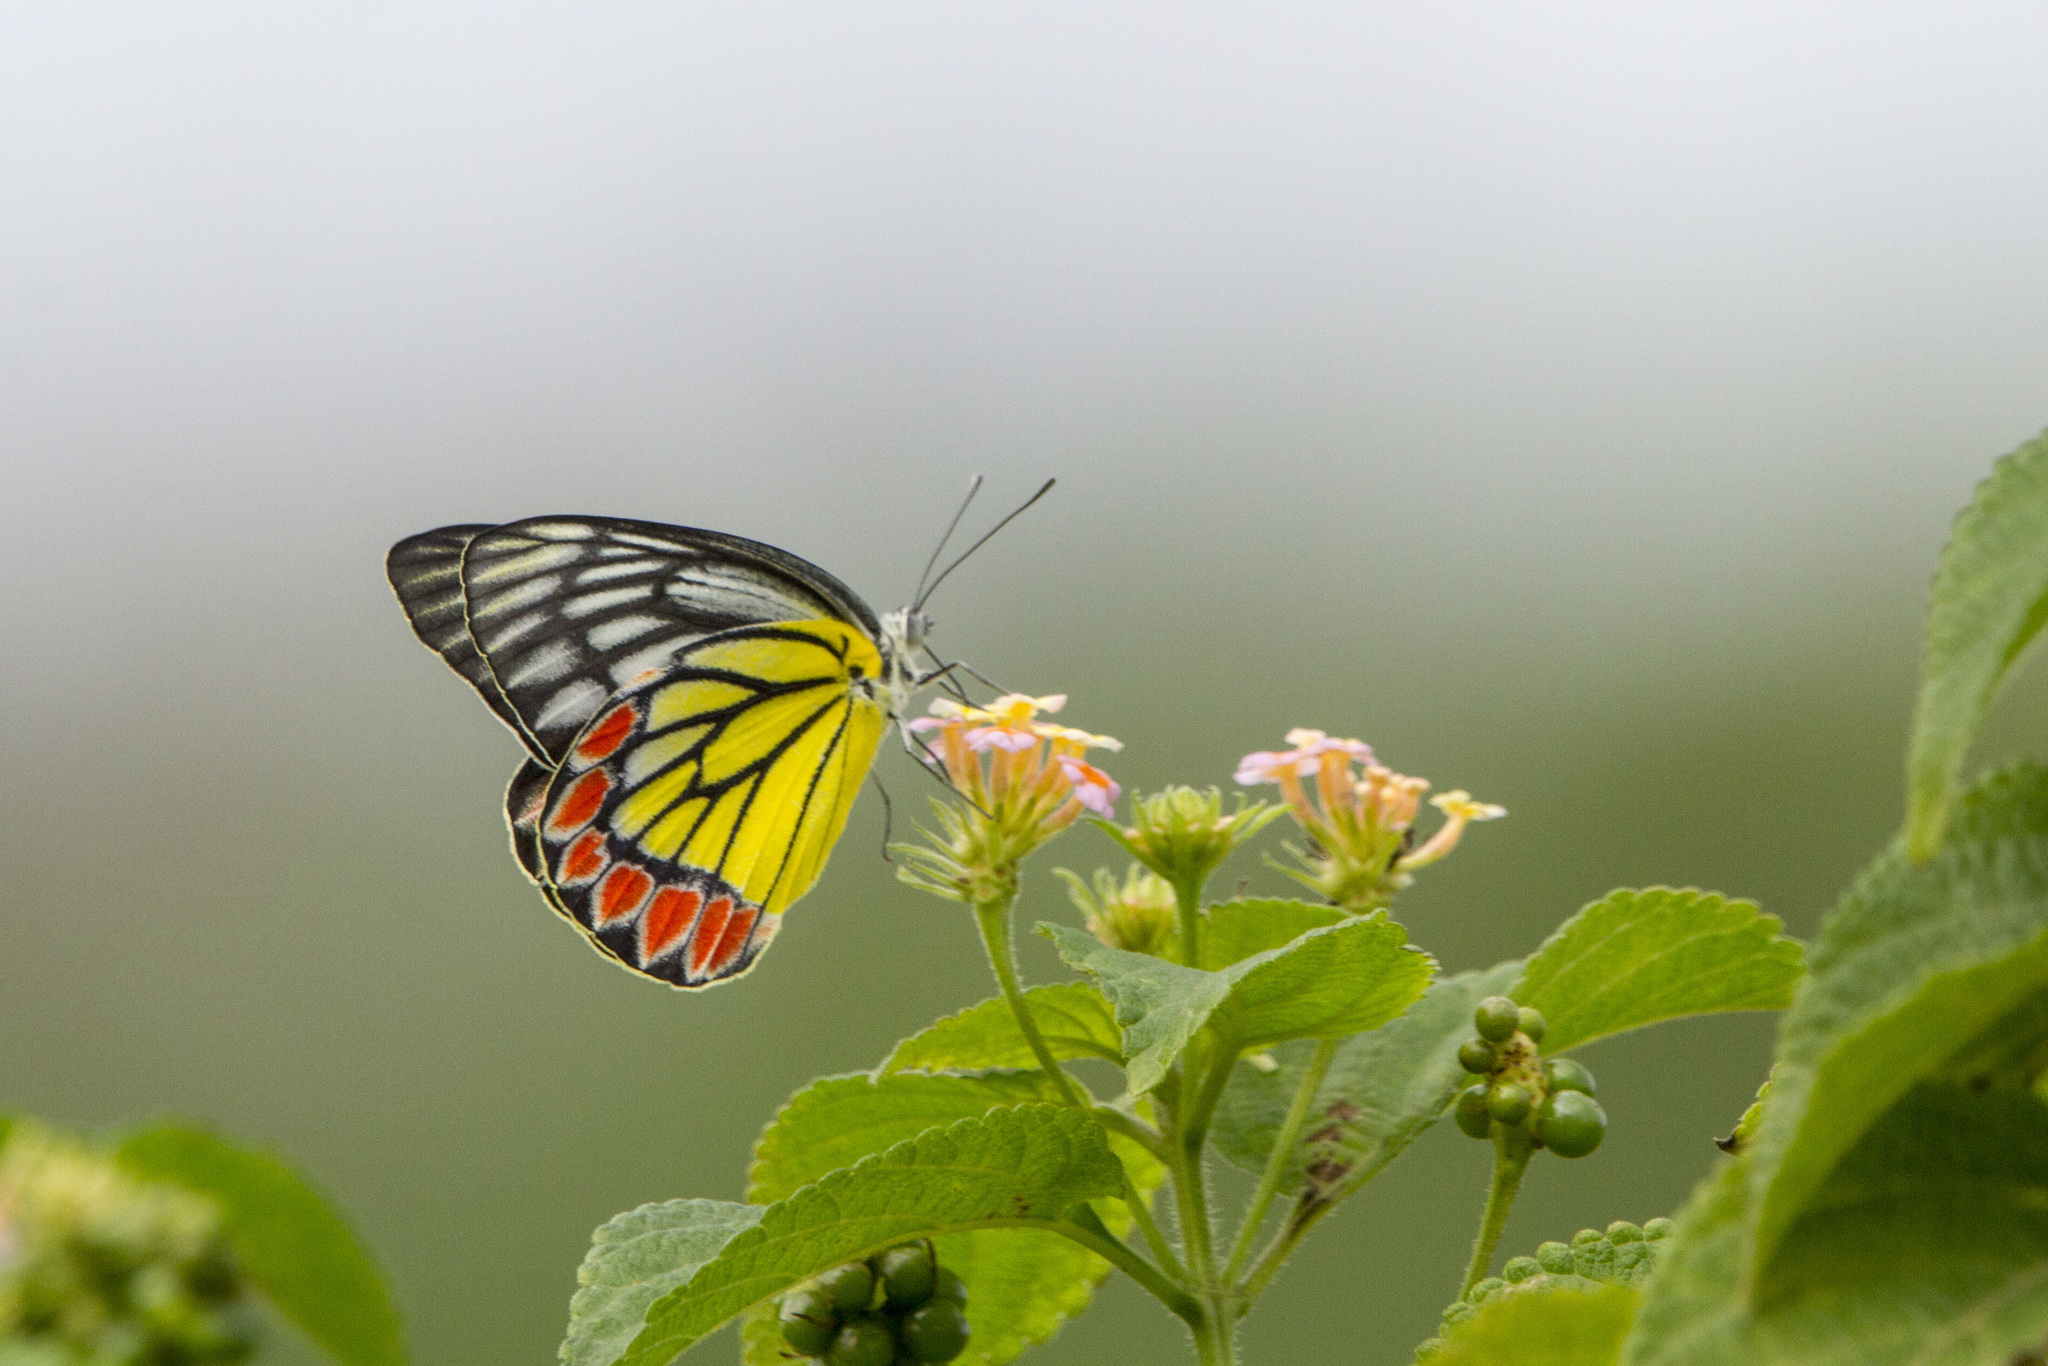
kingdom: Animalia
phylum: Arthropoda
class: Insecta
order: Lepidoptera
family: Pieridae
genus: Delias
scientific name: Delias eucharis
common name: Common jezebel
